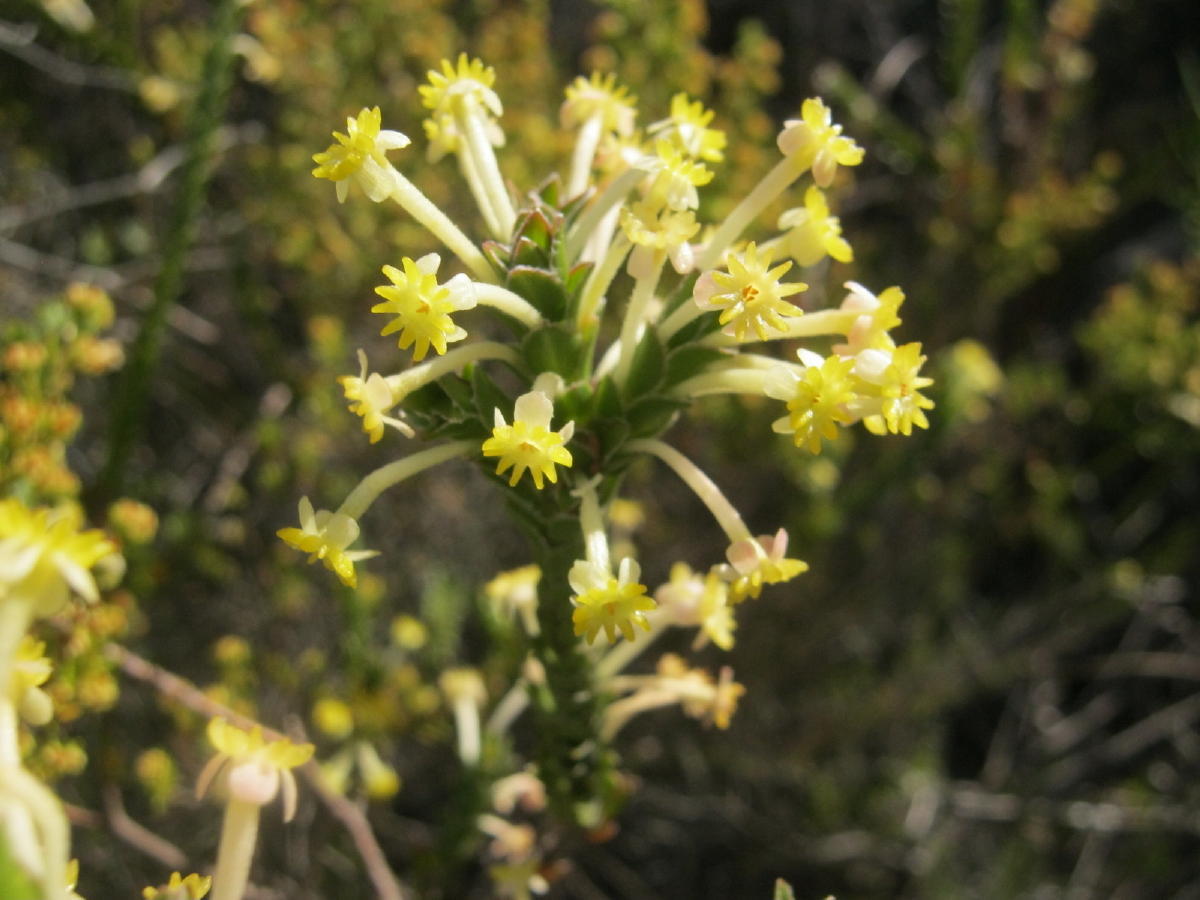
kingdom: Plantae
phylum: Tracheophyta
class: Magnoliopsida
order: Malvales
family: Thymelaeaceae
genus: Struthiola
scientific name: Struthiola argentea
